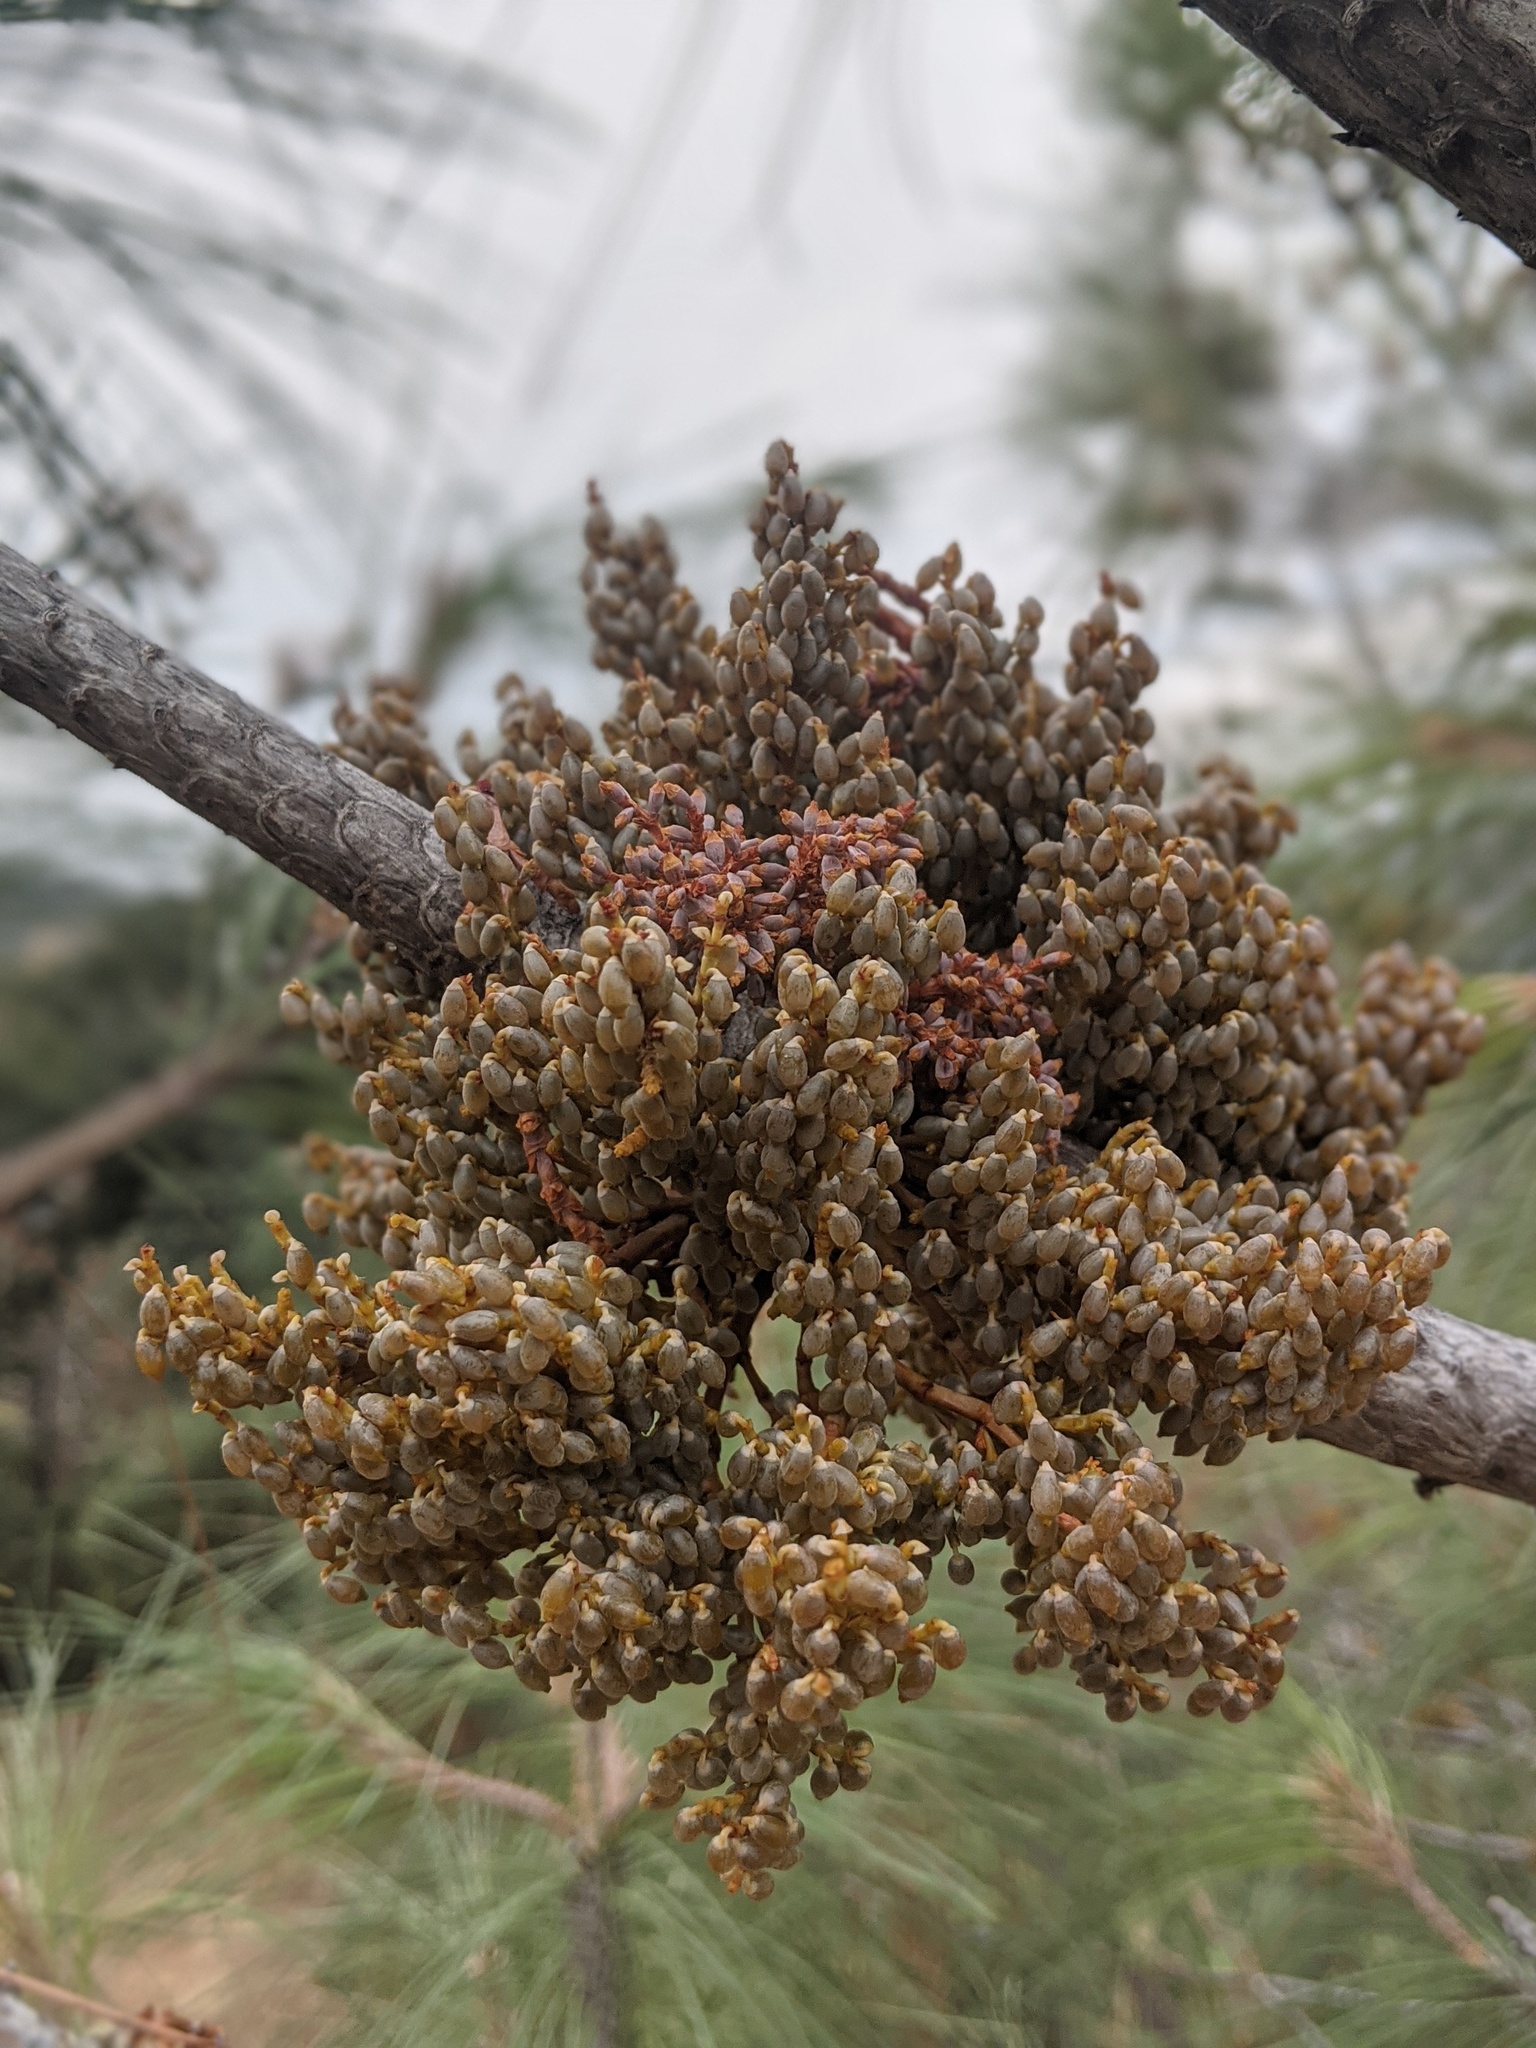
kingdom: Plantae
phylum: Tracheophyta
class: Magnoliopsida
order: Santalales
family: Viscaceae
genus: Arceuthobium
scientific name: Arceuthobium campylopodum
